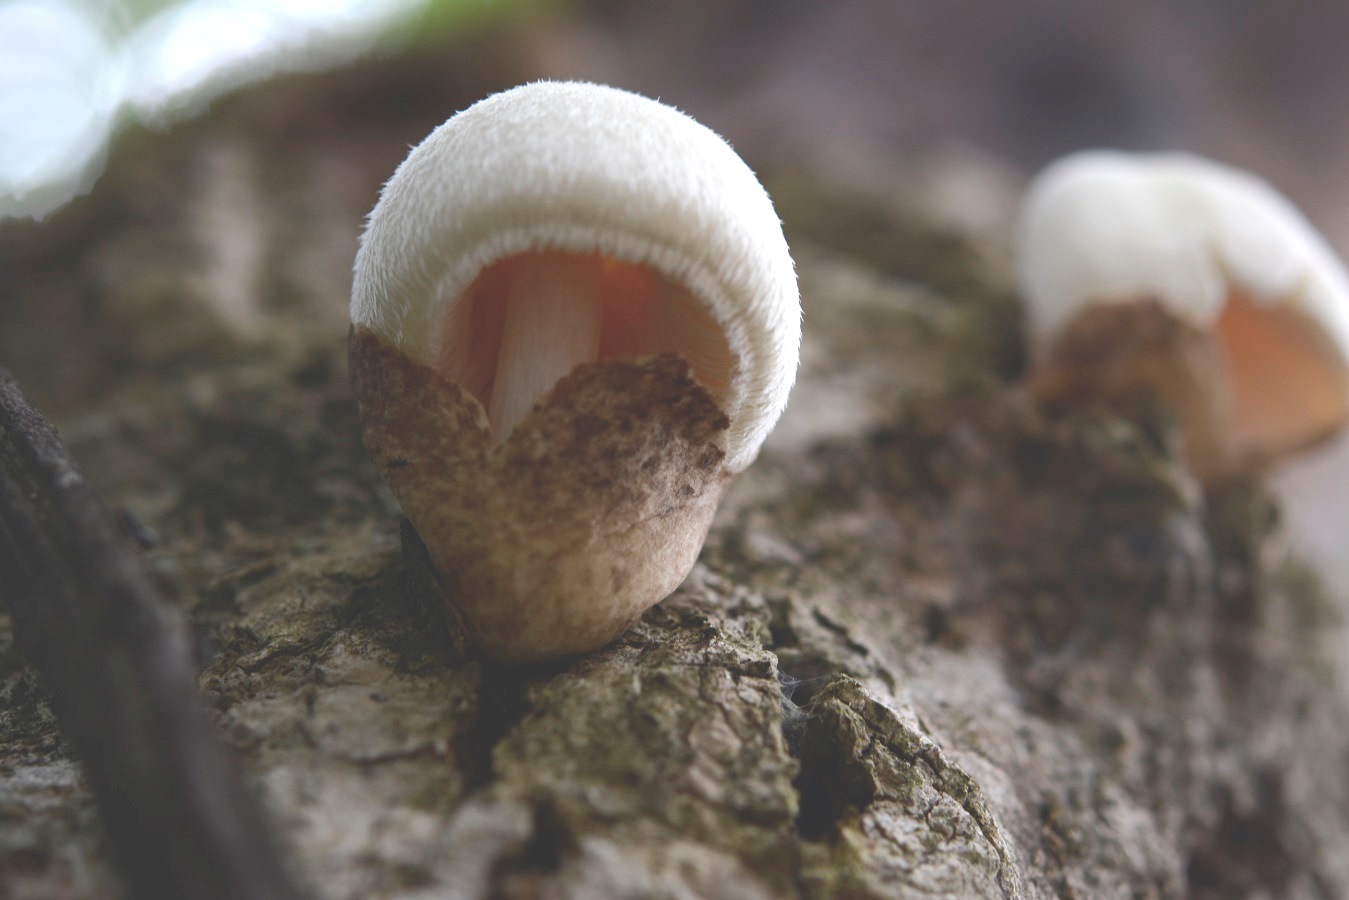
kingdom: Fungi
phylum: Basidiomycota
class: Agaricomycetes
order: Agaricales
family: Pluteaceae
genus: Volvariella
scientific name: Volvariella bombycina
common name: Silky rosegill
